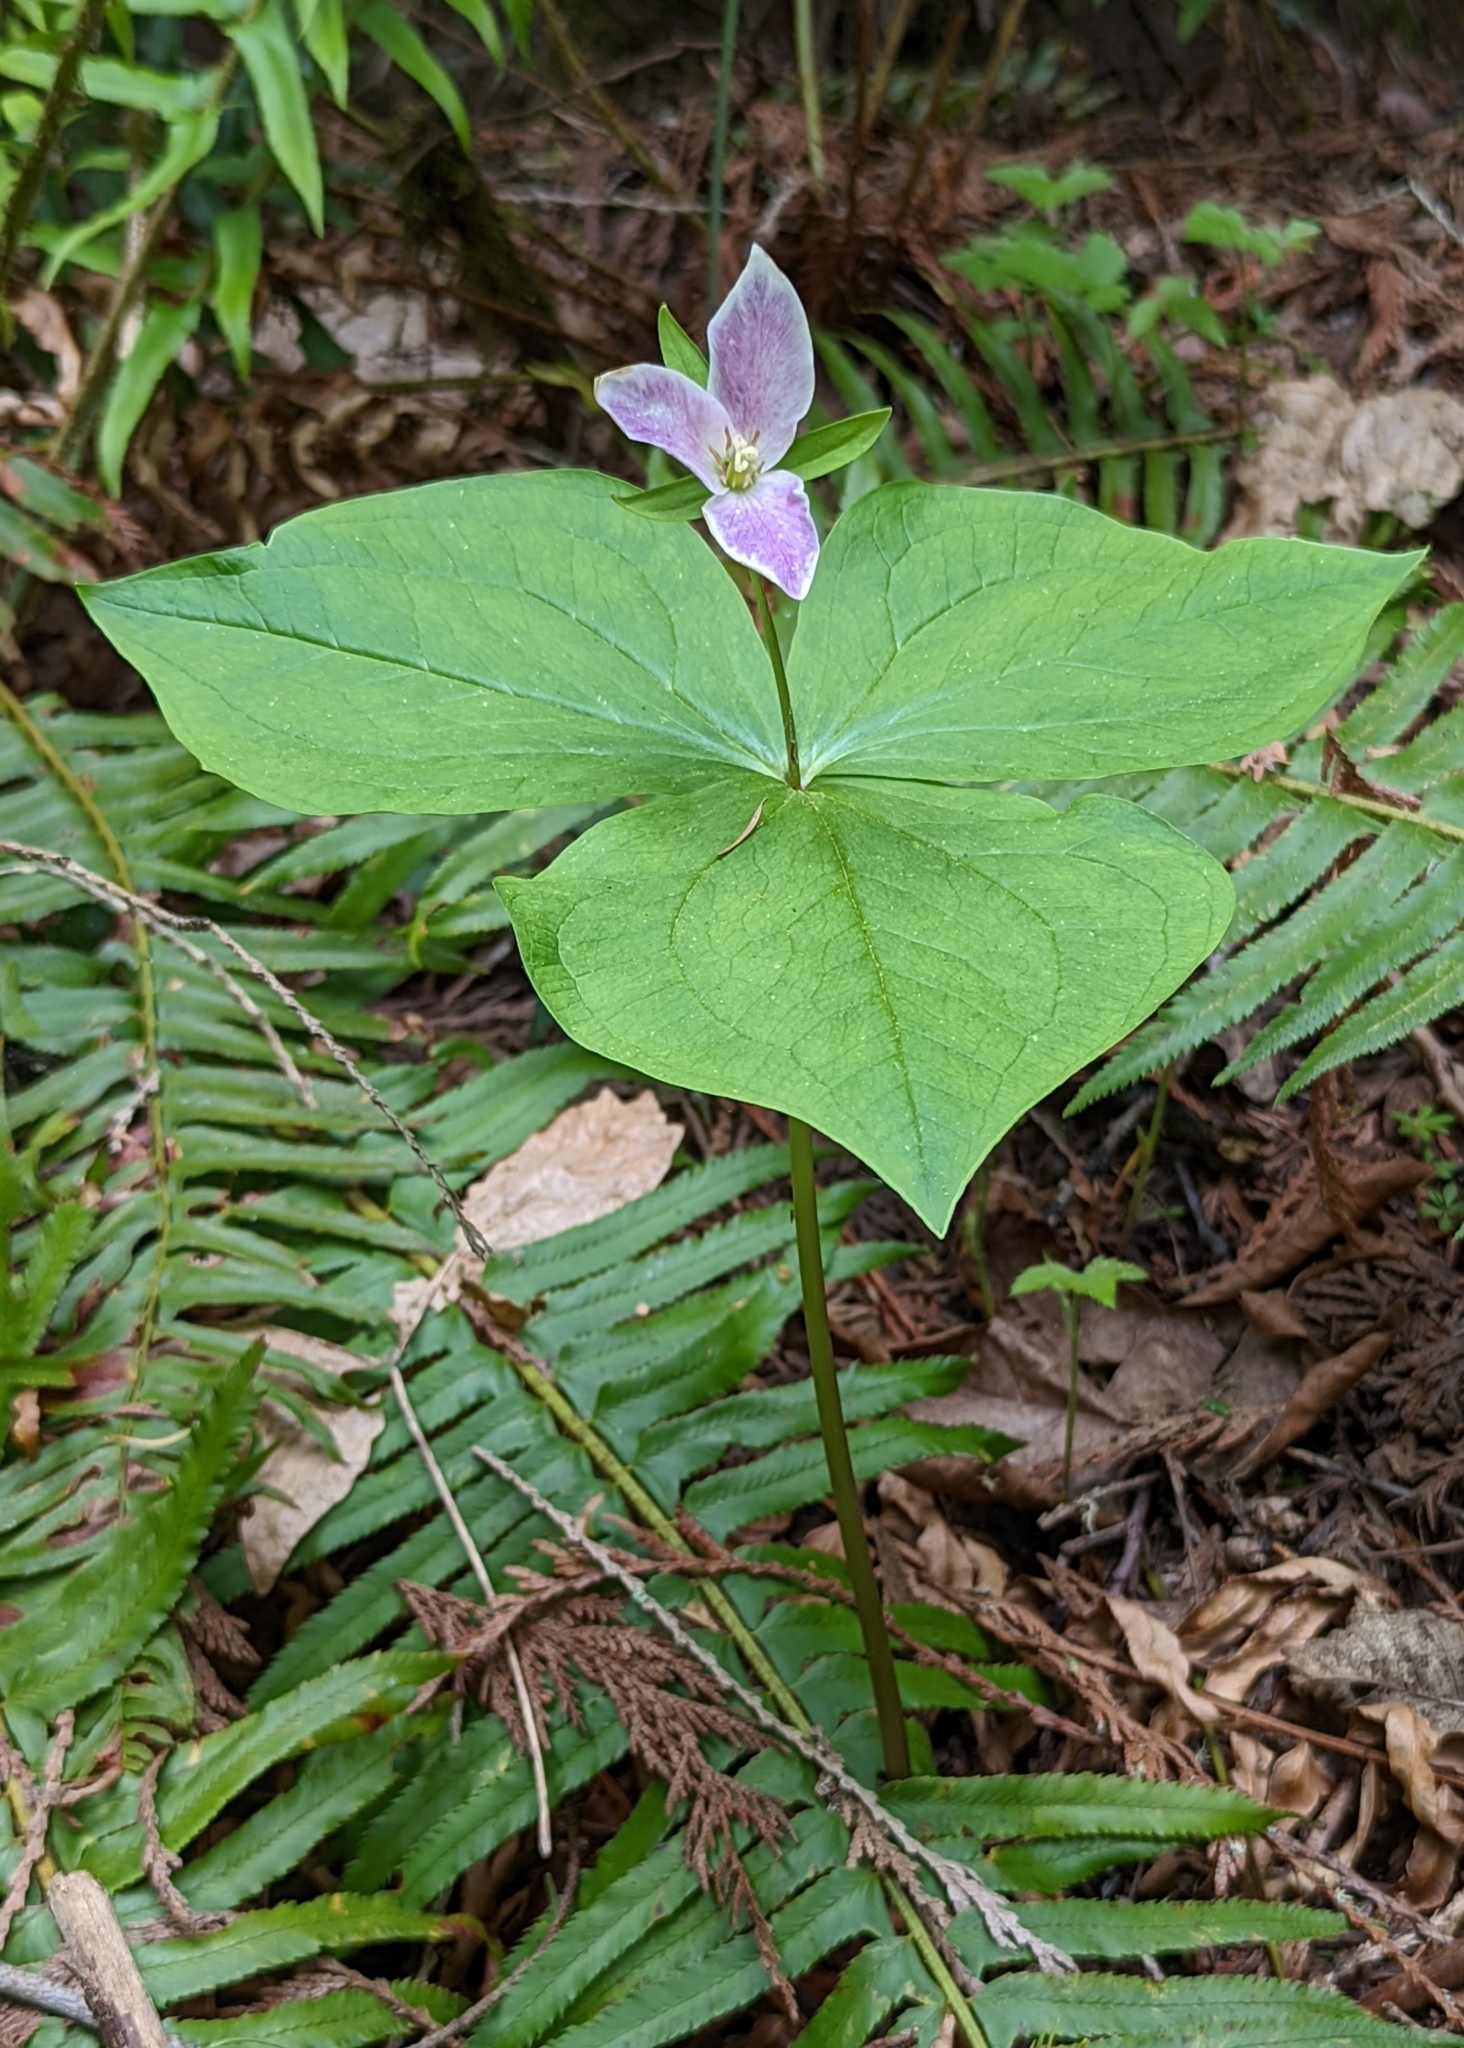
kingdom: Plantae
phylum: Tracheophyta
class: Liliopsida
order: Liliales
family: Melanthiaceae
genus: Trillium
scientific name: Trillium ovatum
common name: Pacific trillium
